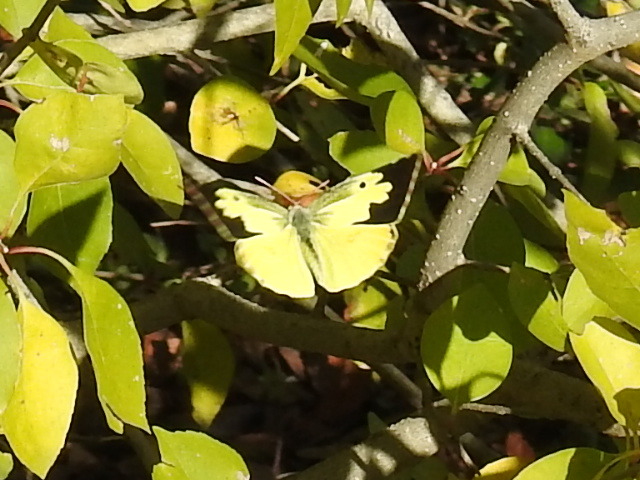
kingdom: Animalia
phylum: Arthropoda
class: Insecta
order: Lepidoptera
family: Pieridae
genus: Zerene
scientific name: Zerene cesonia
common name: Southern dogface
